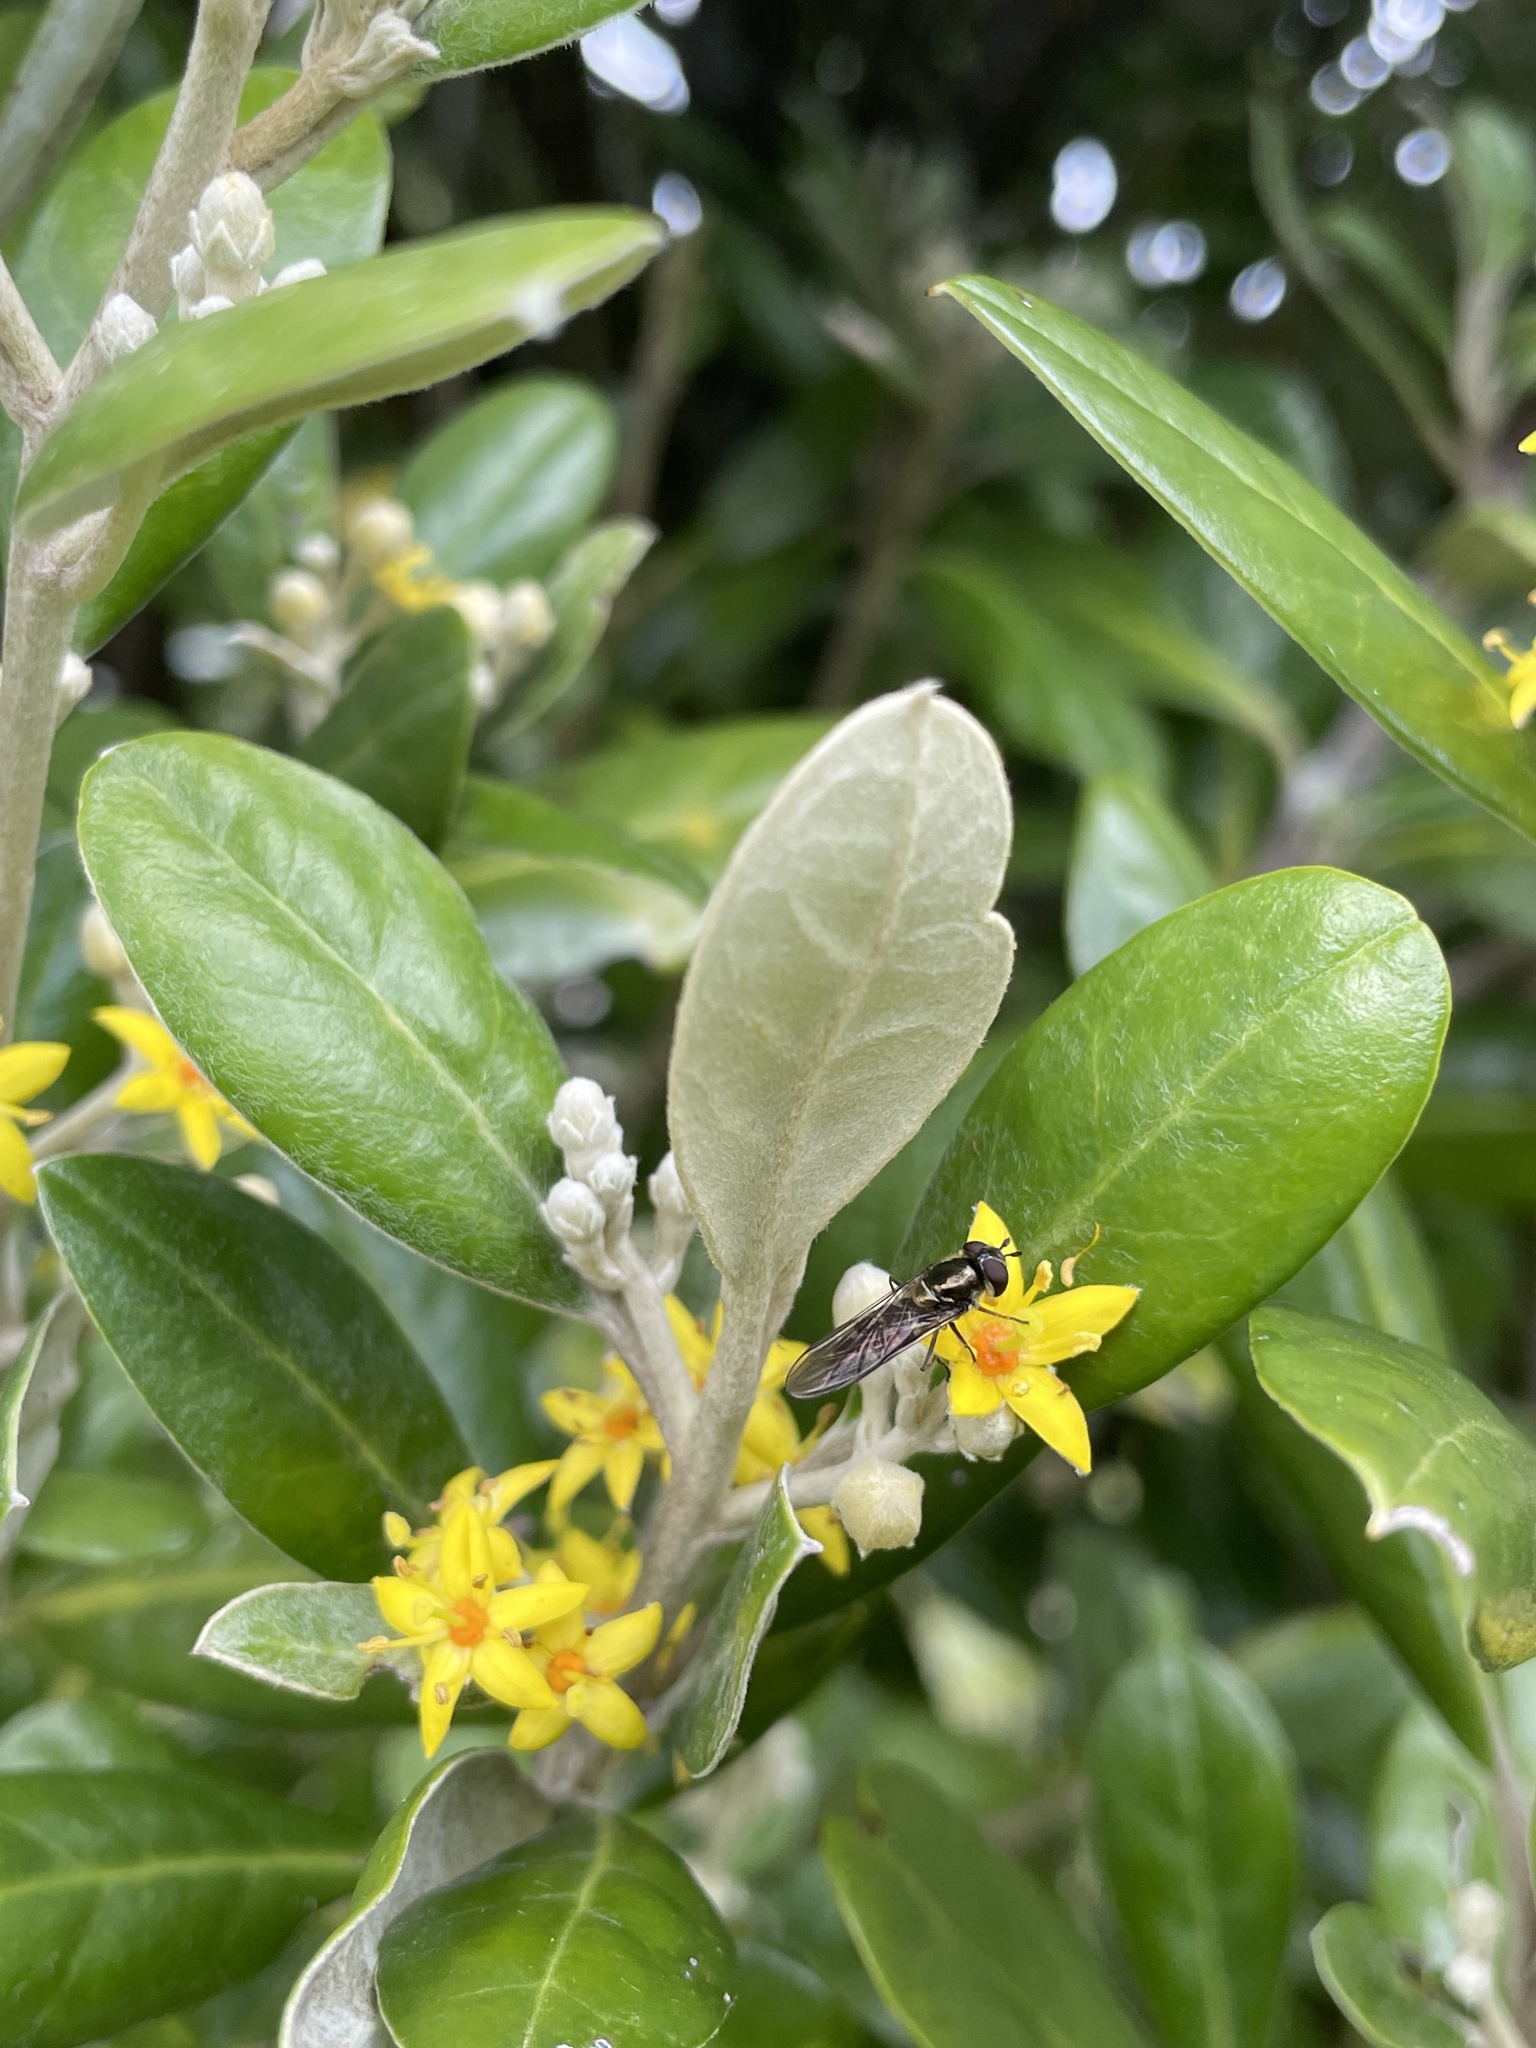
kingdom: Animalia
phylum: Arthropoda
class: Insecta
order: Diptera
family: Syrphidae
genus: Melangyna
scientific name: Melangyna novaezelandiae
